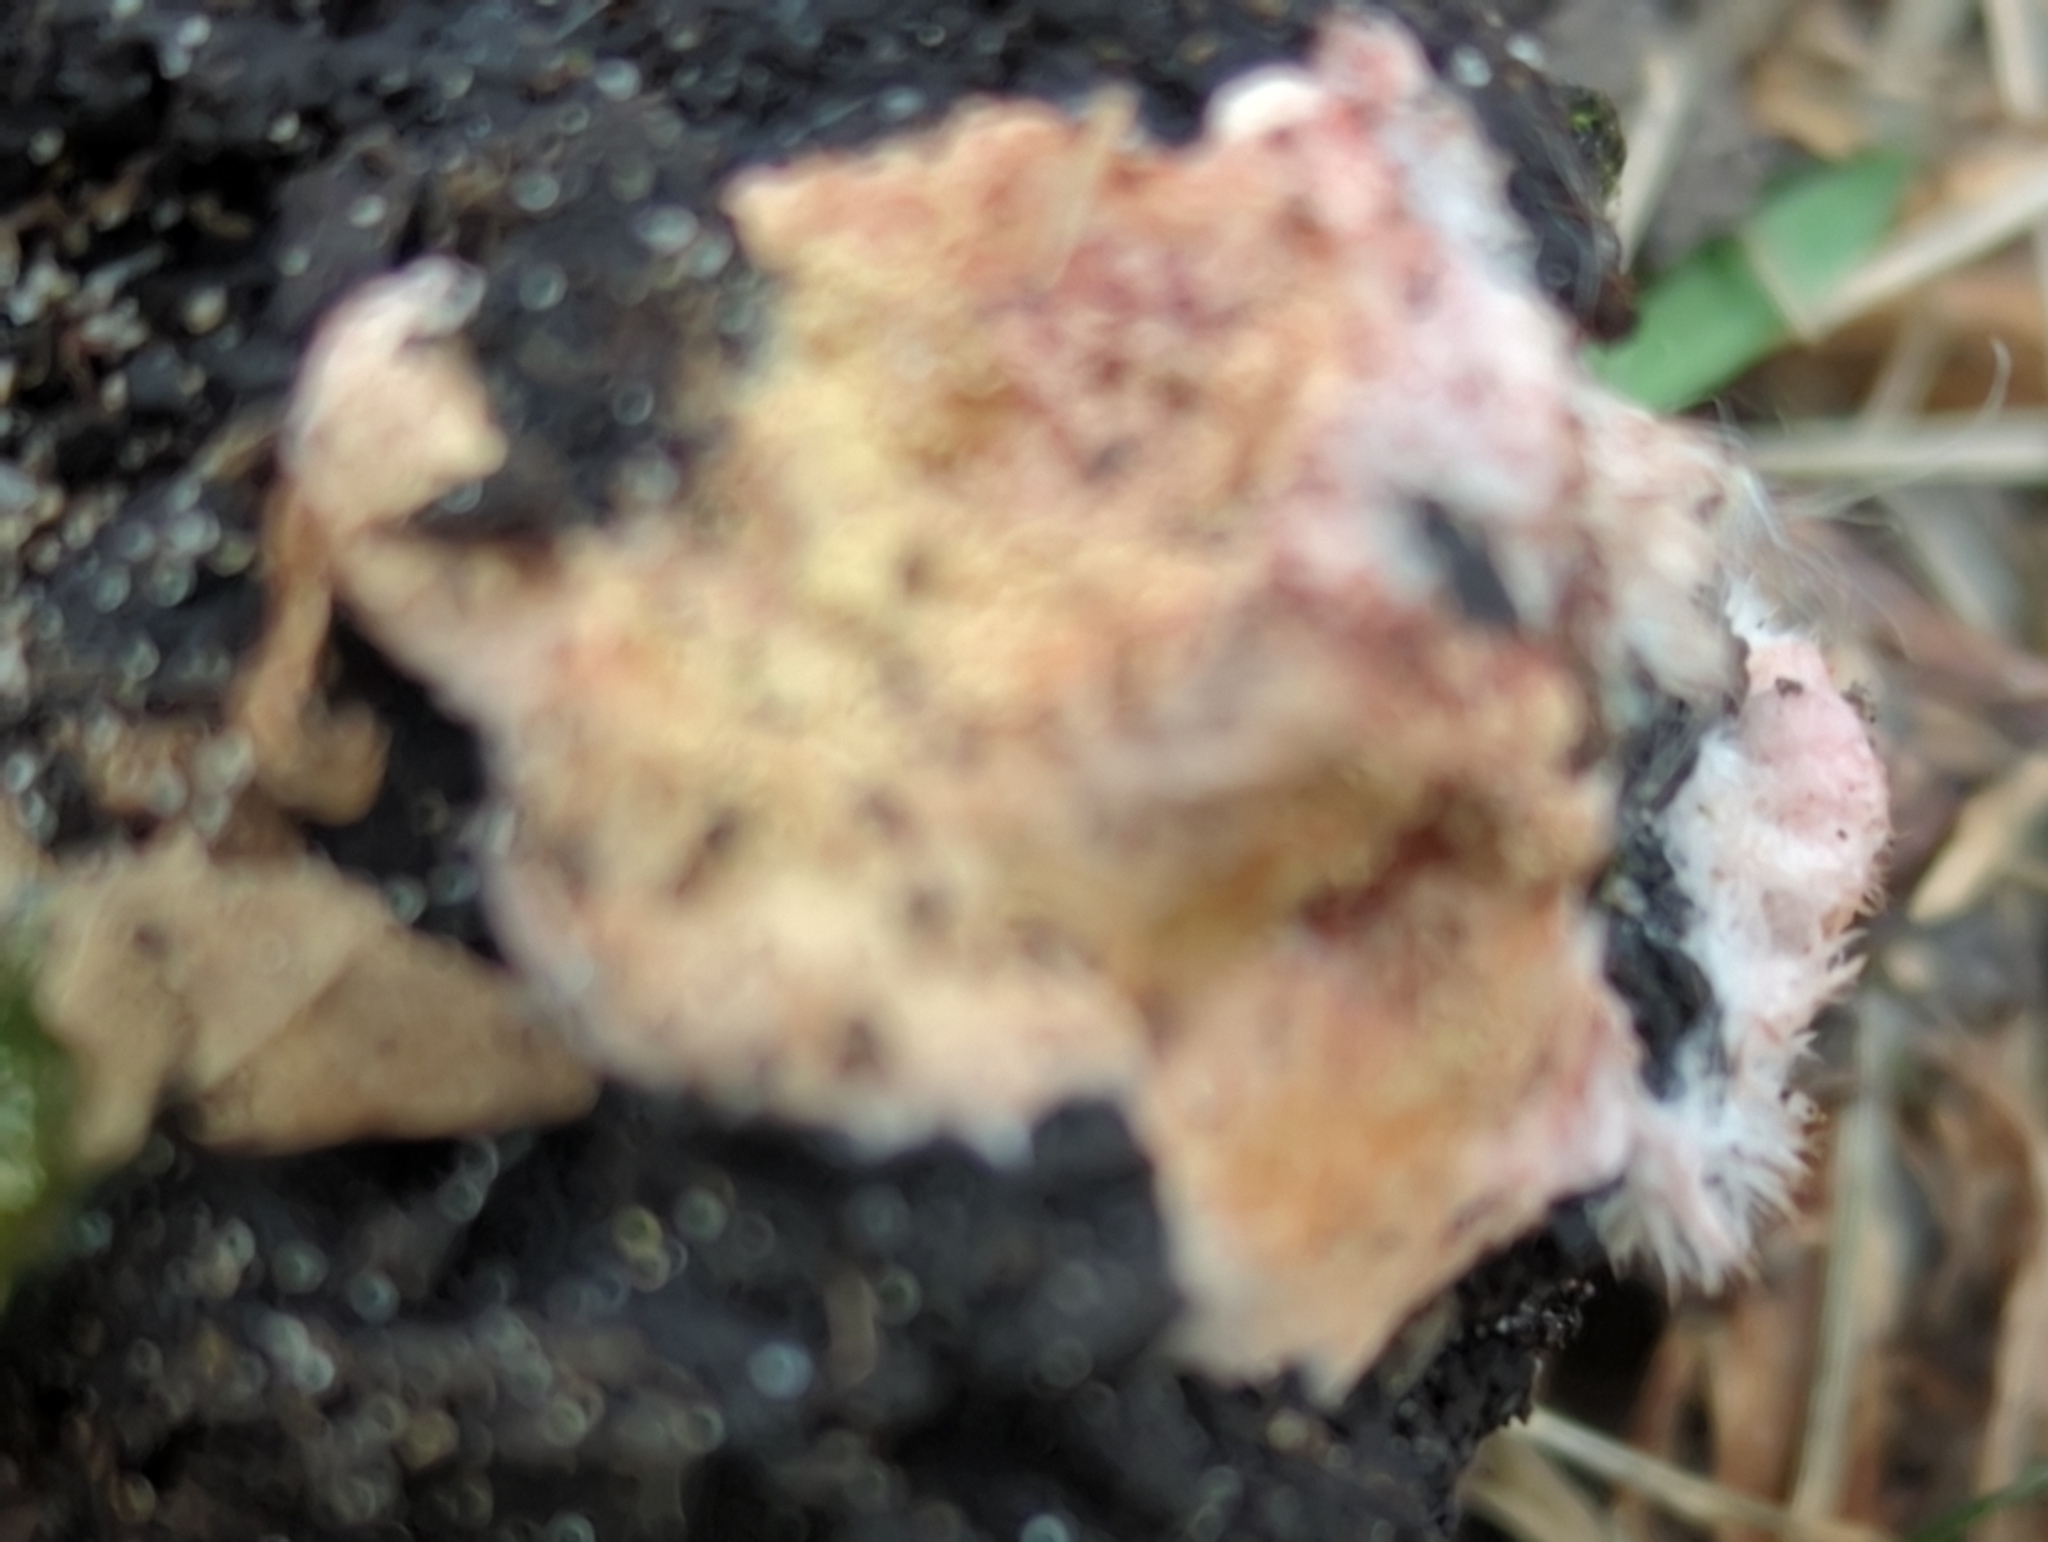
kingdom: Fungi
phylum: Ascomycota
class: Pezizomycetes
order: Pezizales
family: Pezizaceae
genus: Pachyphlodes
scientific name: Pachyphlodes thysellii
